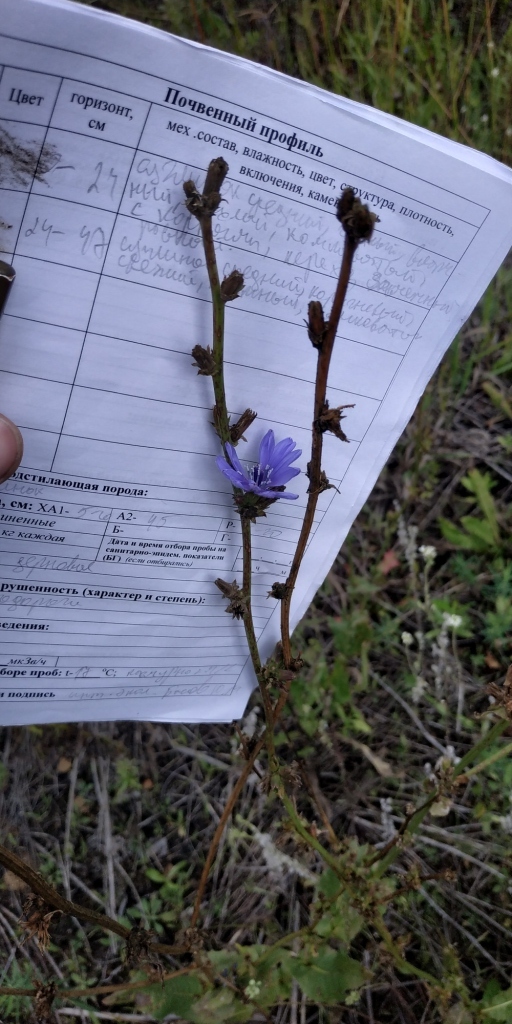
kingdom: Plantae
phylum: Tracheophyta
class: Magnoliopsida
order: Asterales
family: Asteraceae
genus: Cichorium
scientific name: Cichorium intybus
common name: Chicory
